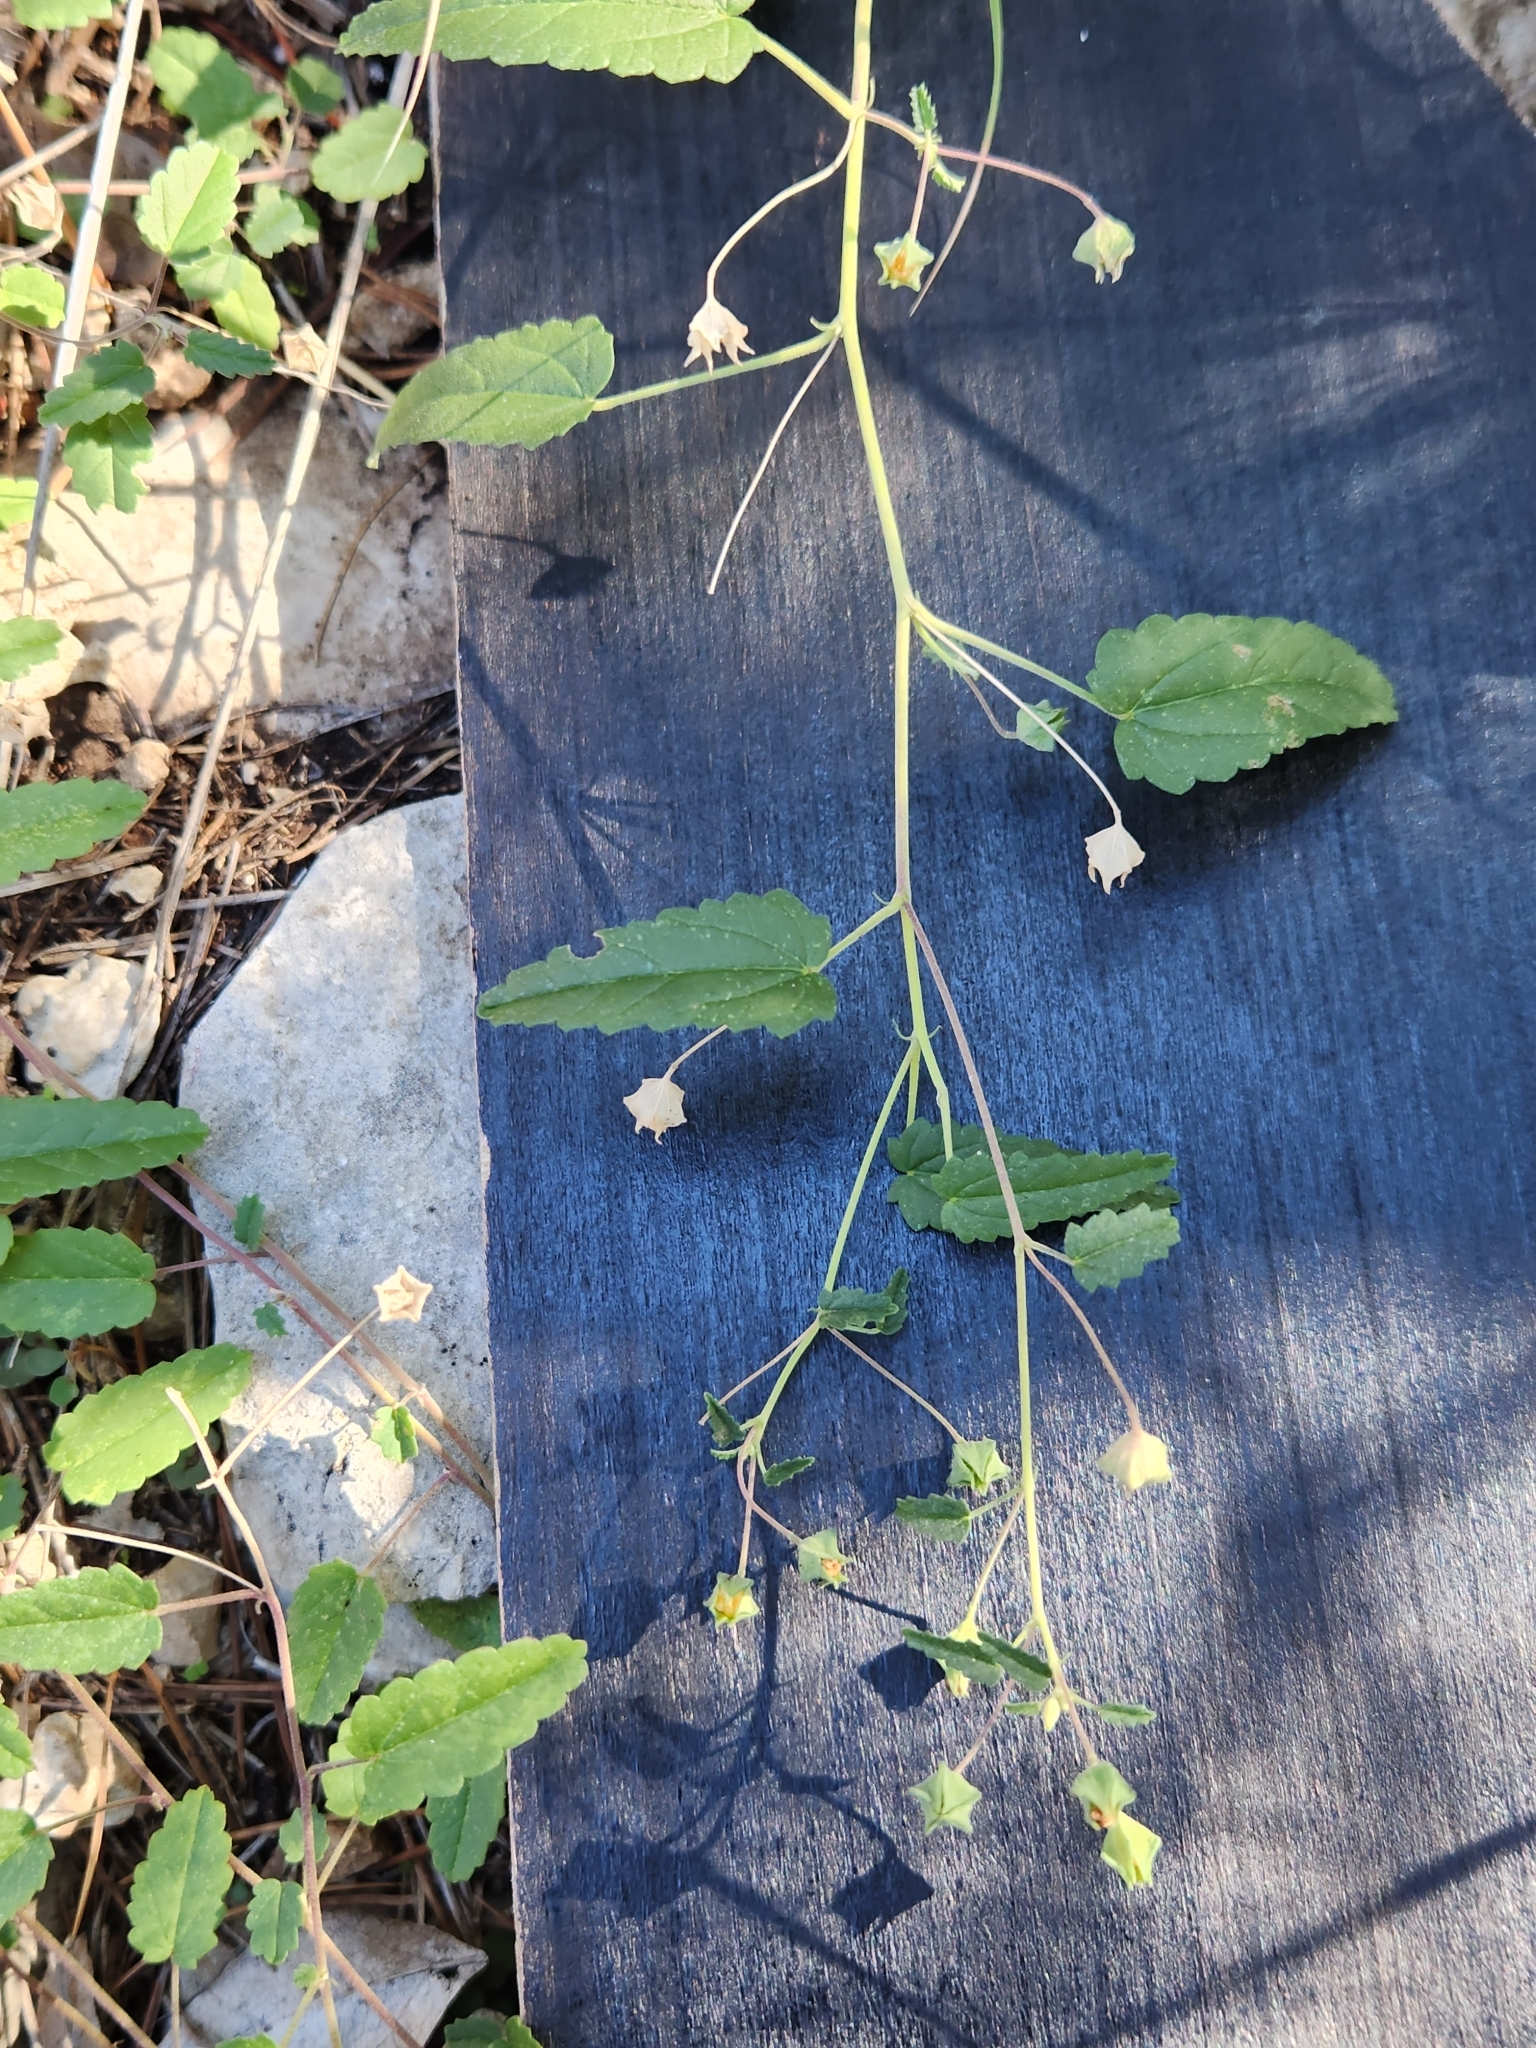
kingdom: Plantae
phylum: Tracheophyta
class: Magnoliopsida
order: Malvales
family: Malvaceae
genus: Sida
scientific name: Sida abutilifolia
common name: Spreading fanpetals
